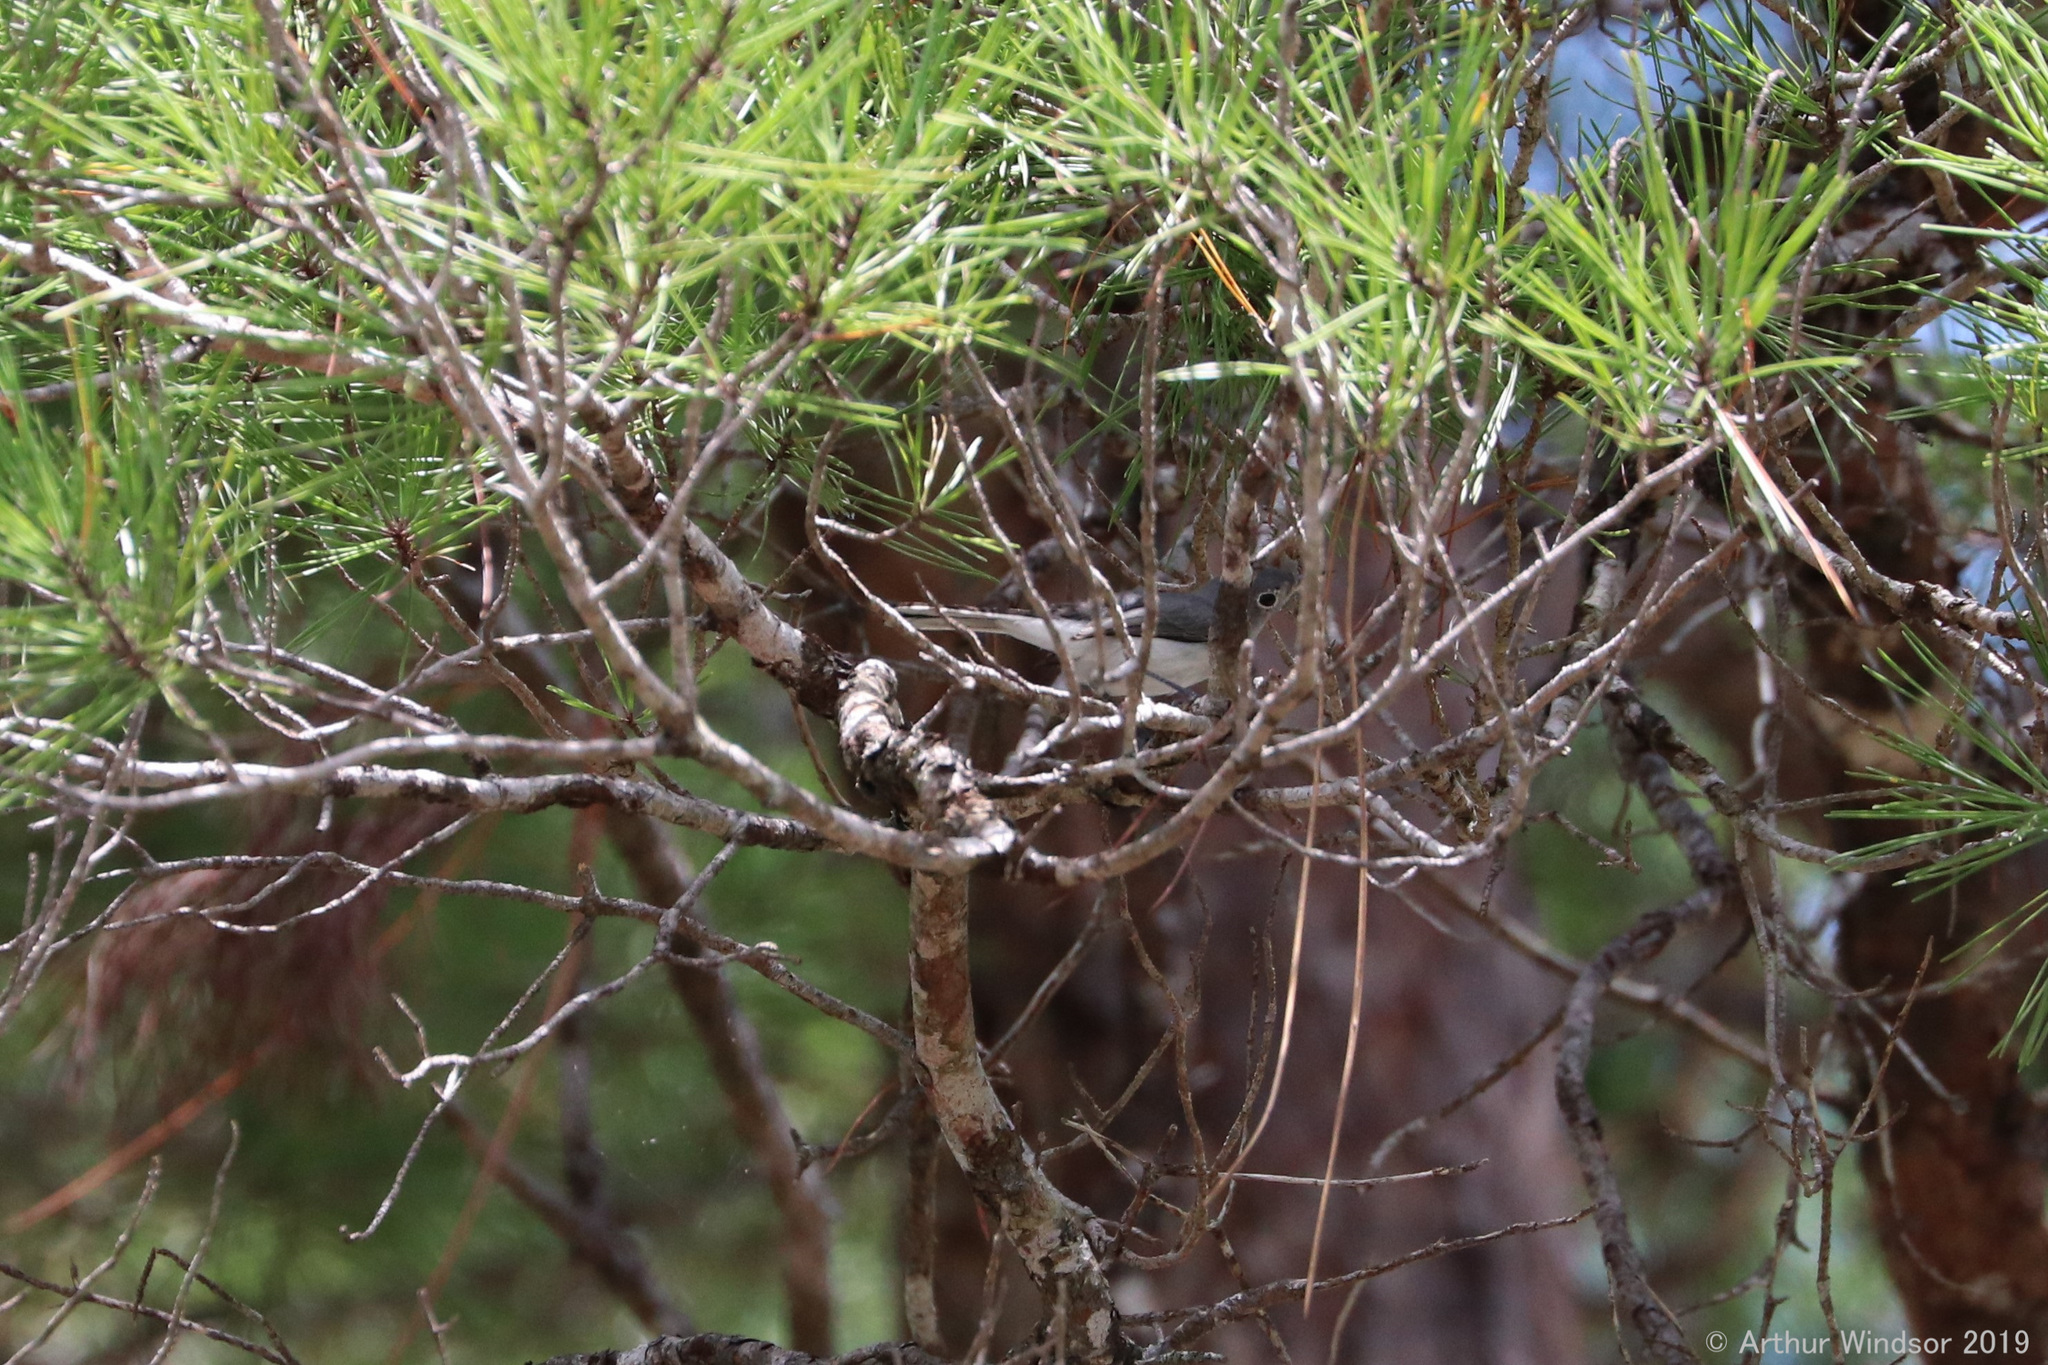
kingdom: Animalia
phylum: Chordata
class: Aves
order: Passeriformes
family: Polioptilidae
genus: Polioptila
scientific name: Polioptila caerulea
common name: Blue-gray gnatcatcher
